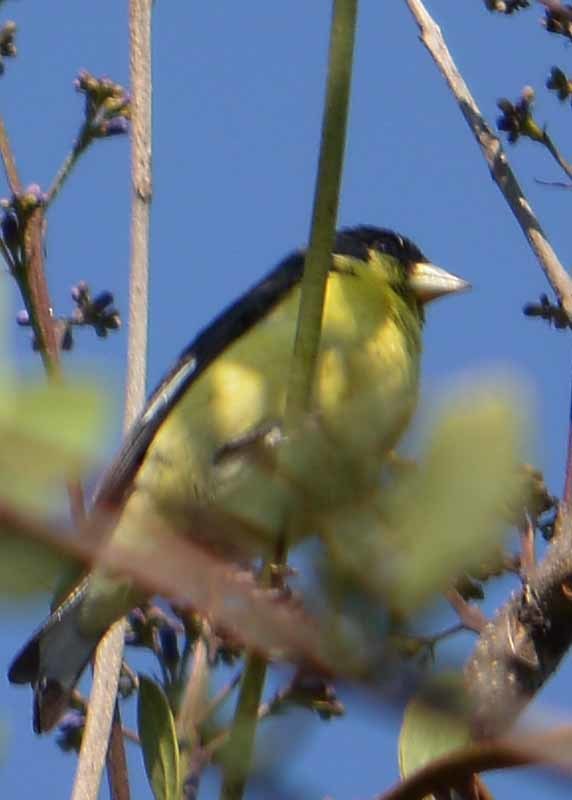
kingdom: Animalia
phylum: Chordata
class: Aves
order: Passeriformes
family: Fringillidae
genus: Spinus
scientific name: Spinus psaltria
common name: Lesser goldfinch
